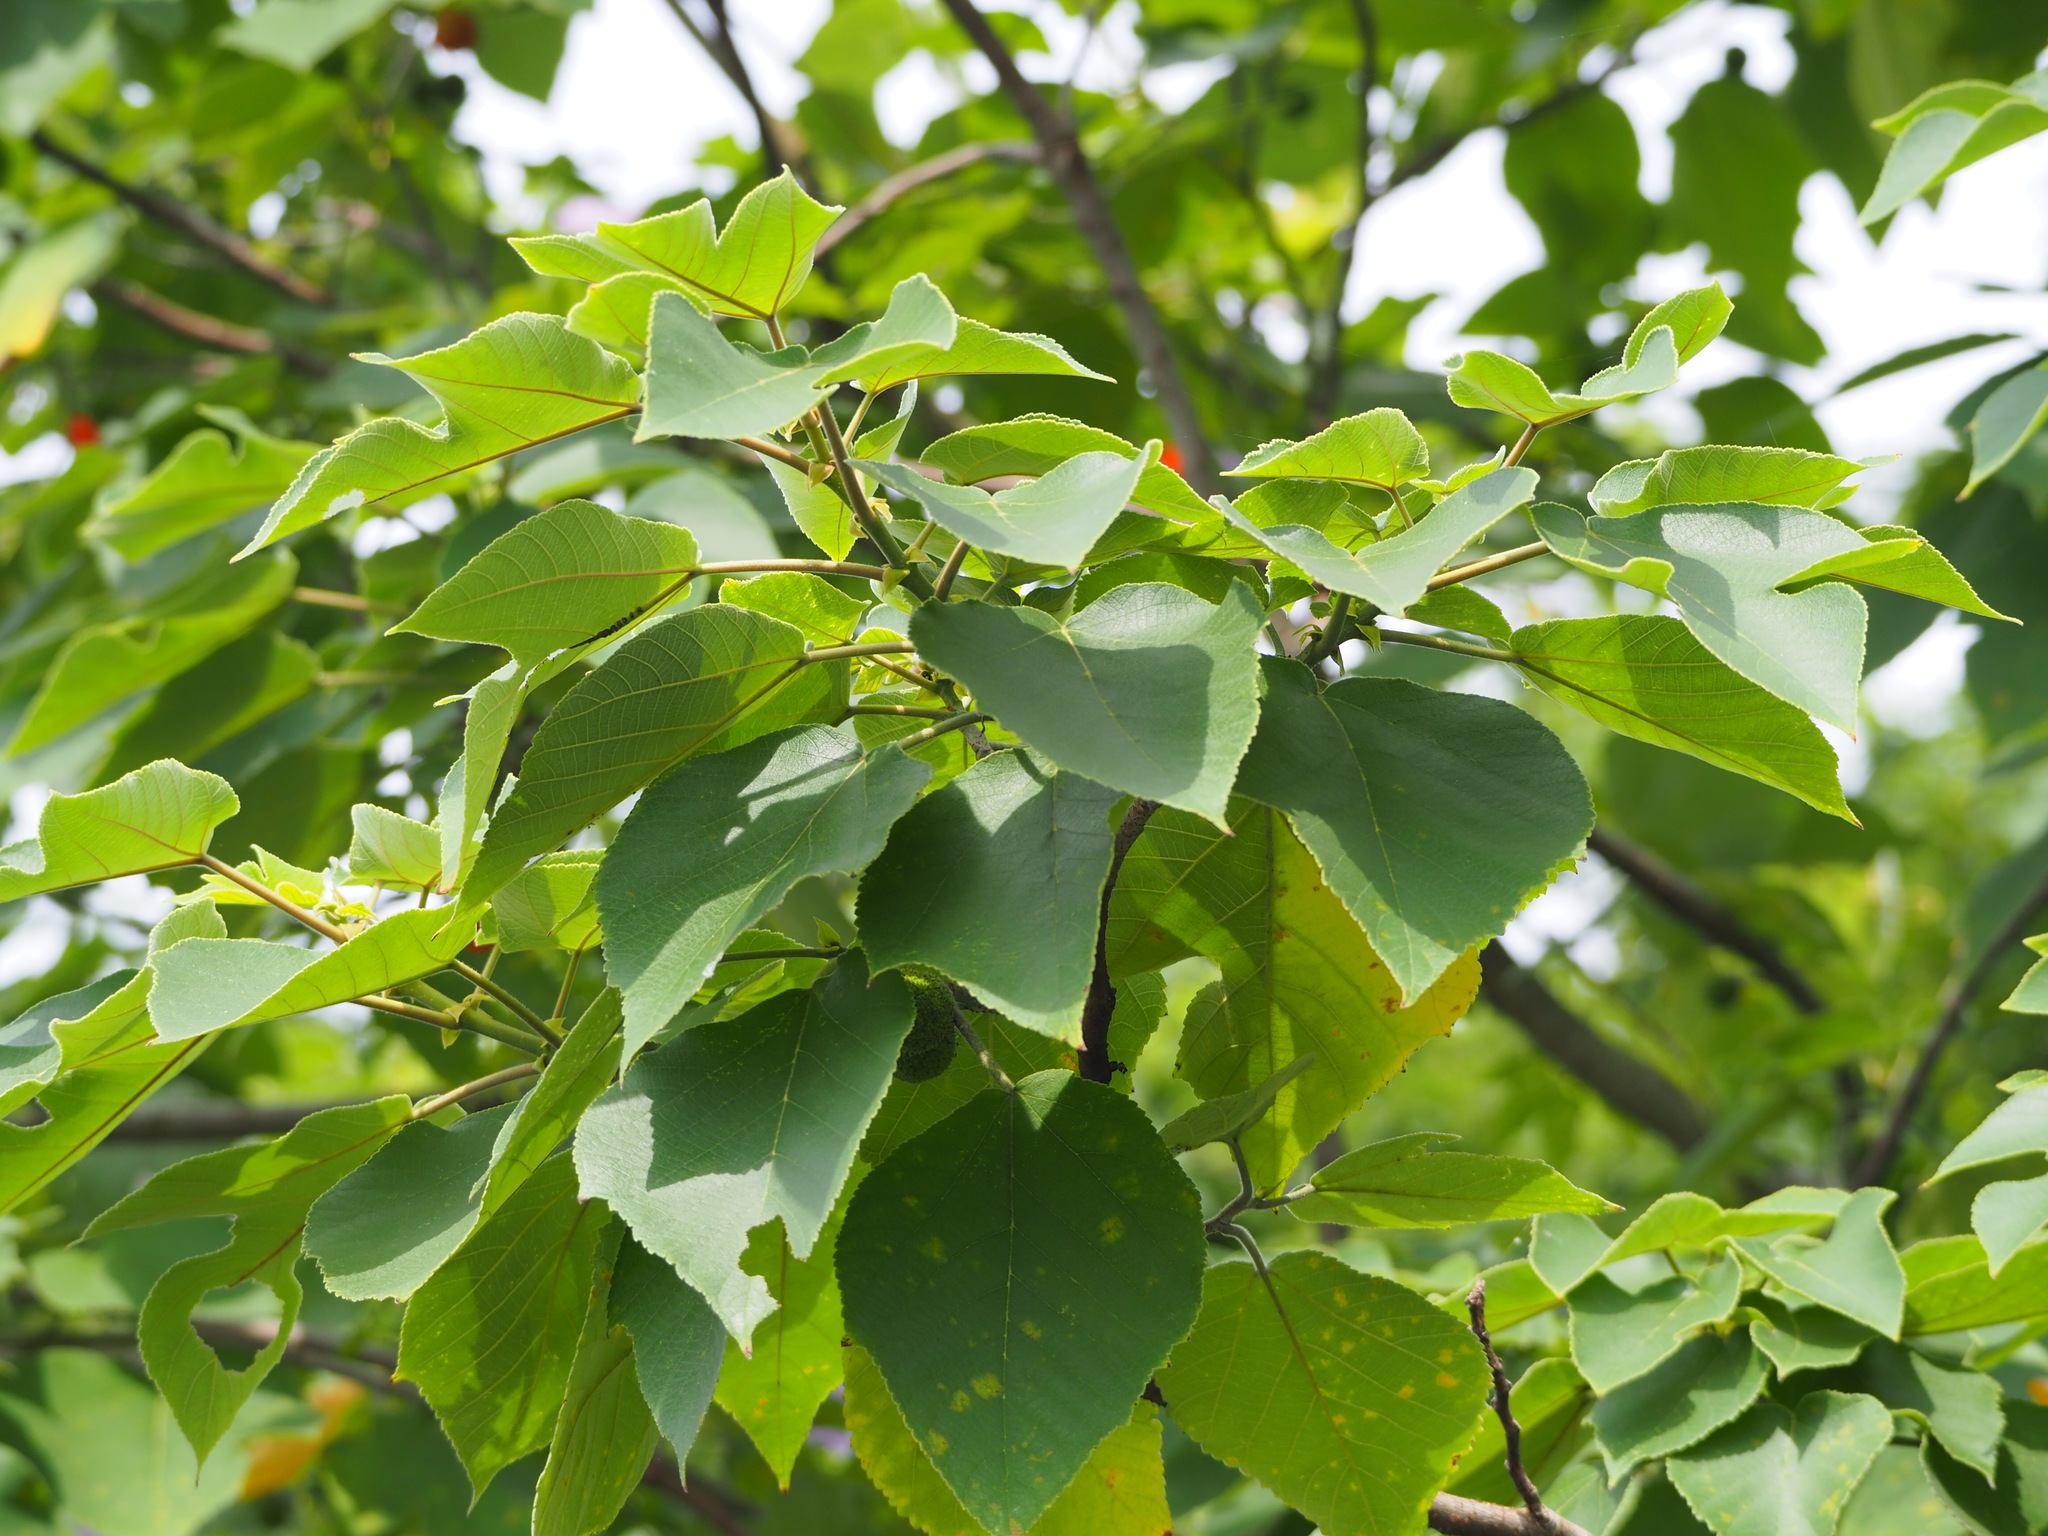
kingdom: Plantae
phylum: Tracheophyta
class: Magnoliopsida
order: Rosales
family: Moraceae
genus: Broussonetia
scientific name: Broussonetia papyrifera
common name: Paper mulberry
